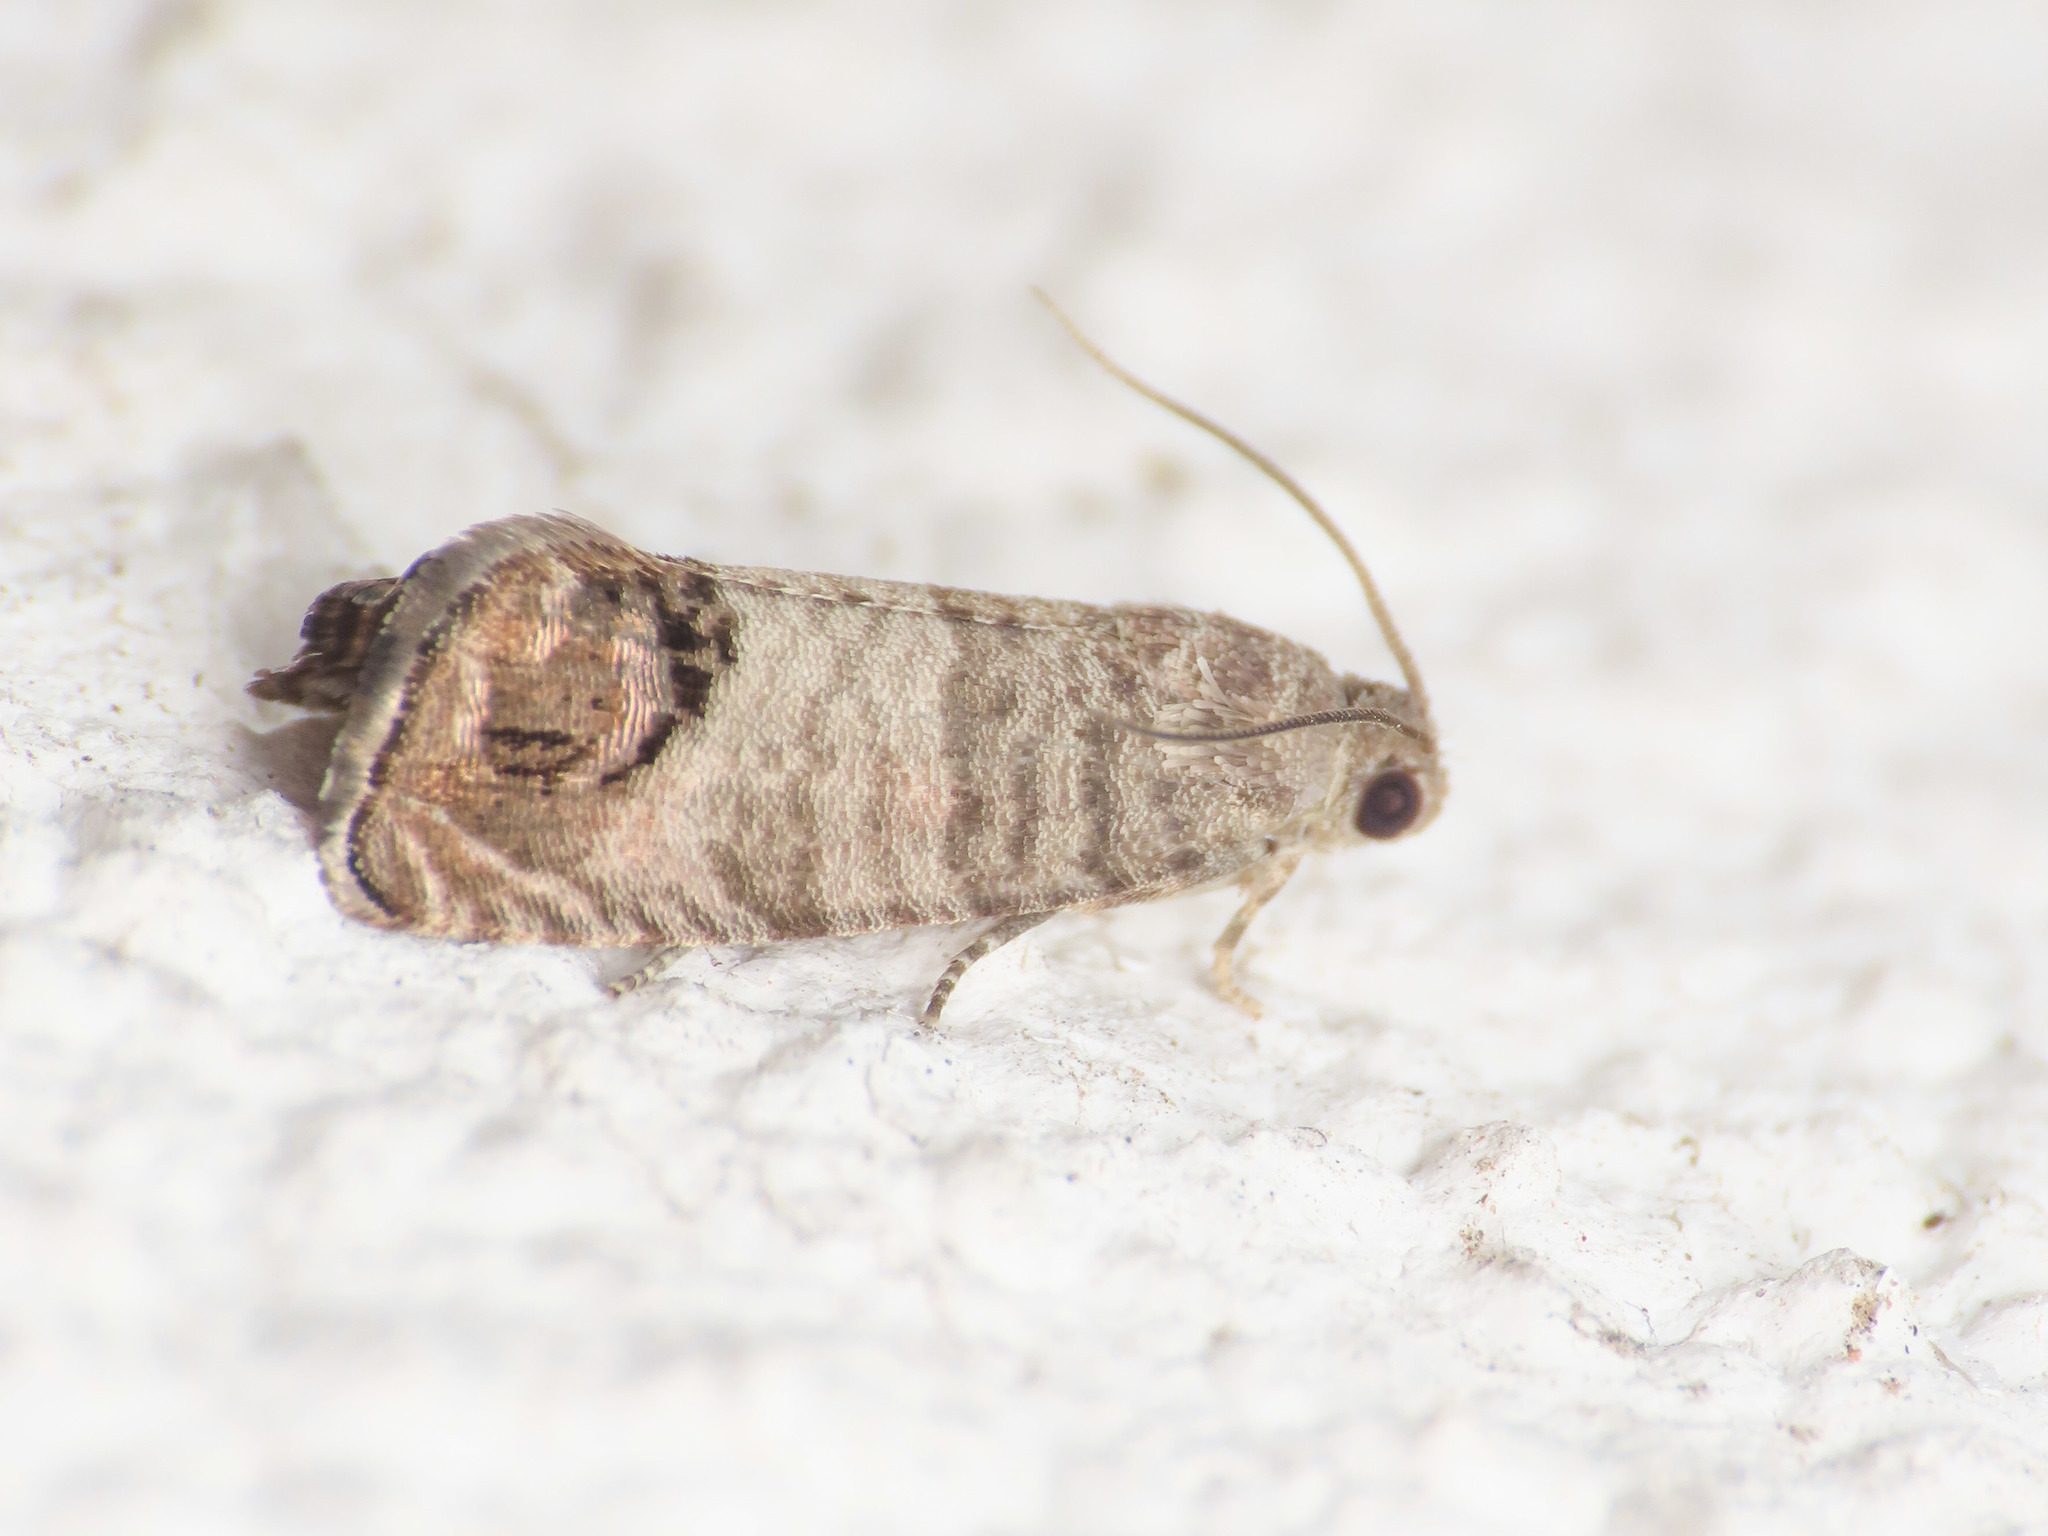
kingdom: Animalia
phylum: Arthropoda
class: Insecta
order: Lepidoptera
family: Tortricidae
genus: Cydia
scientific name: Cydia pomonella
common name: Codling moth
